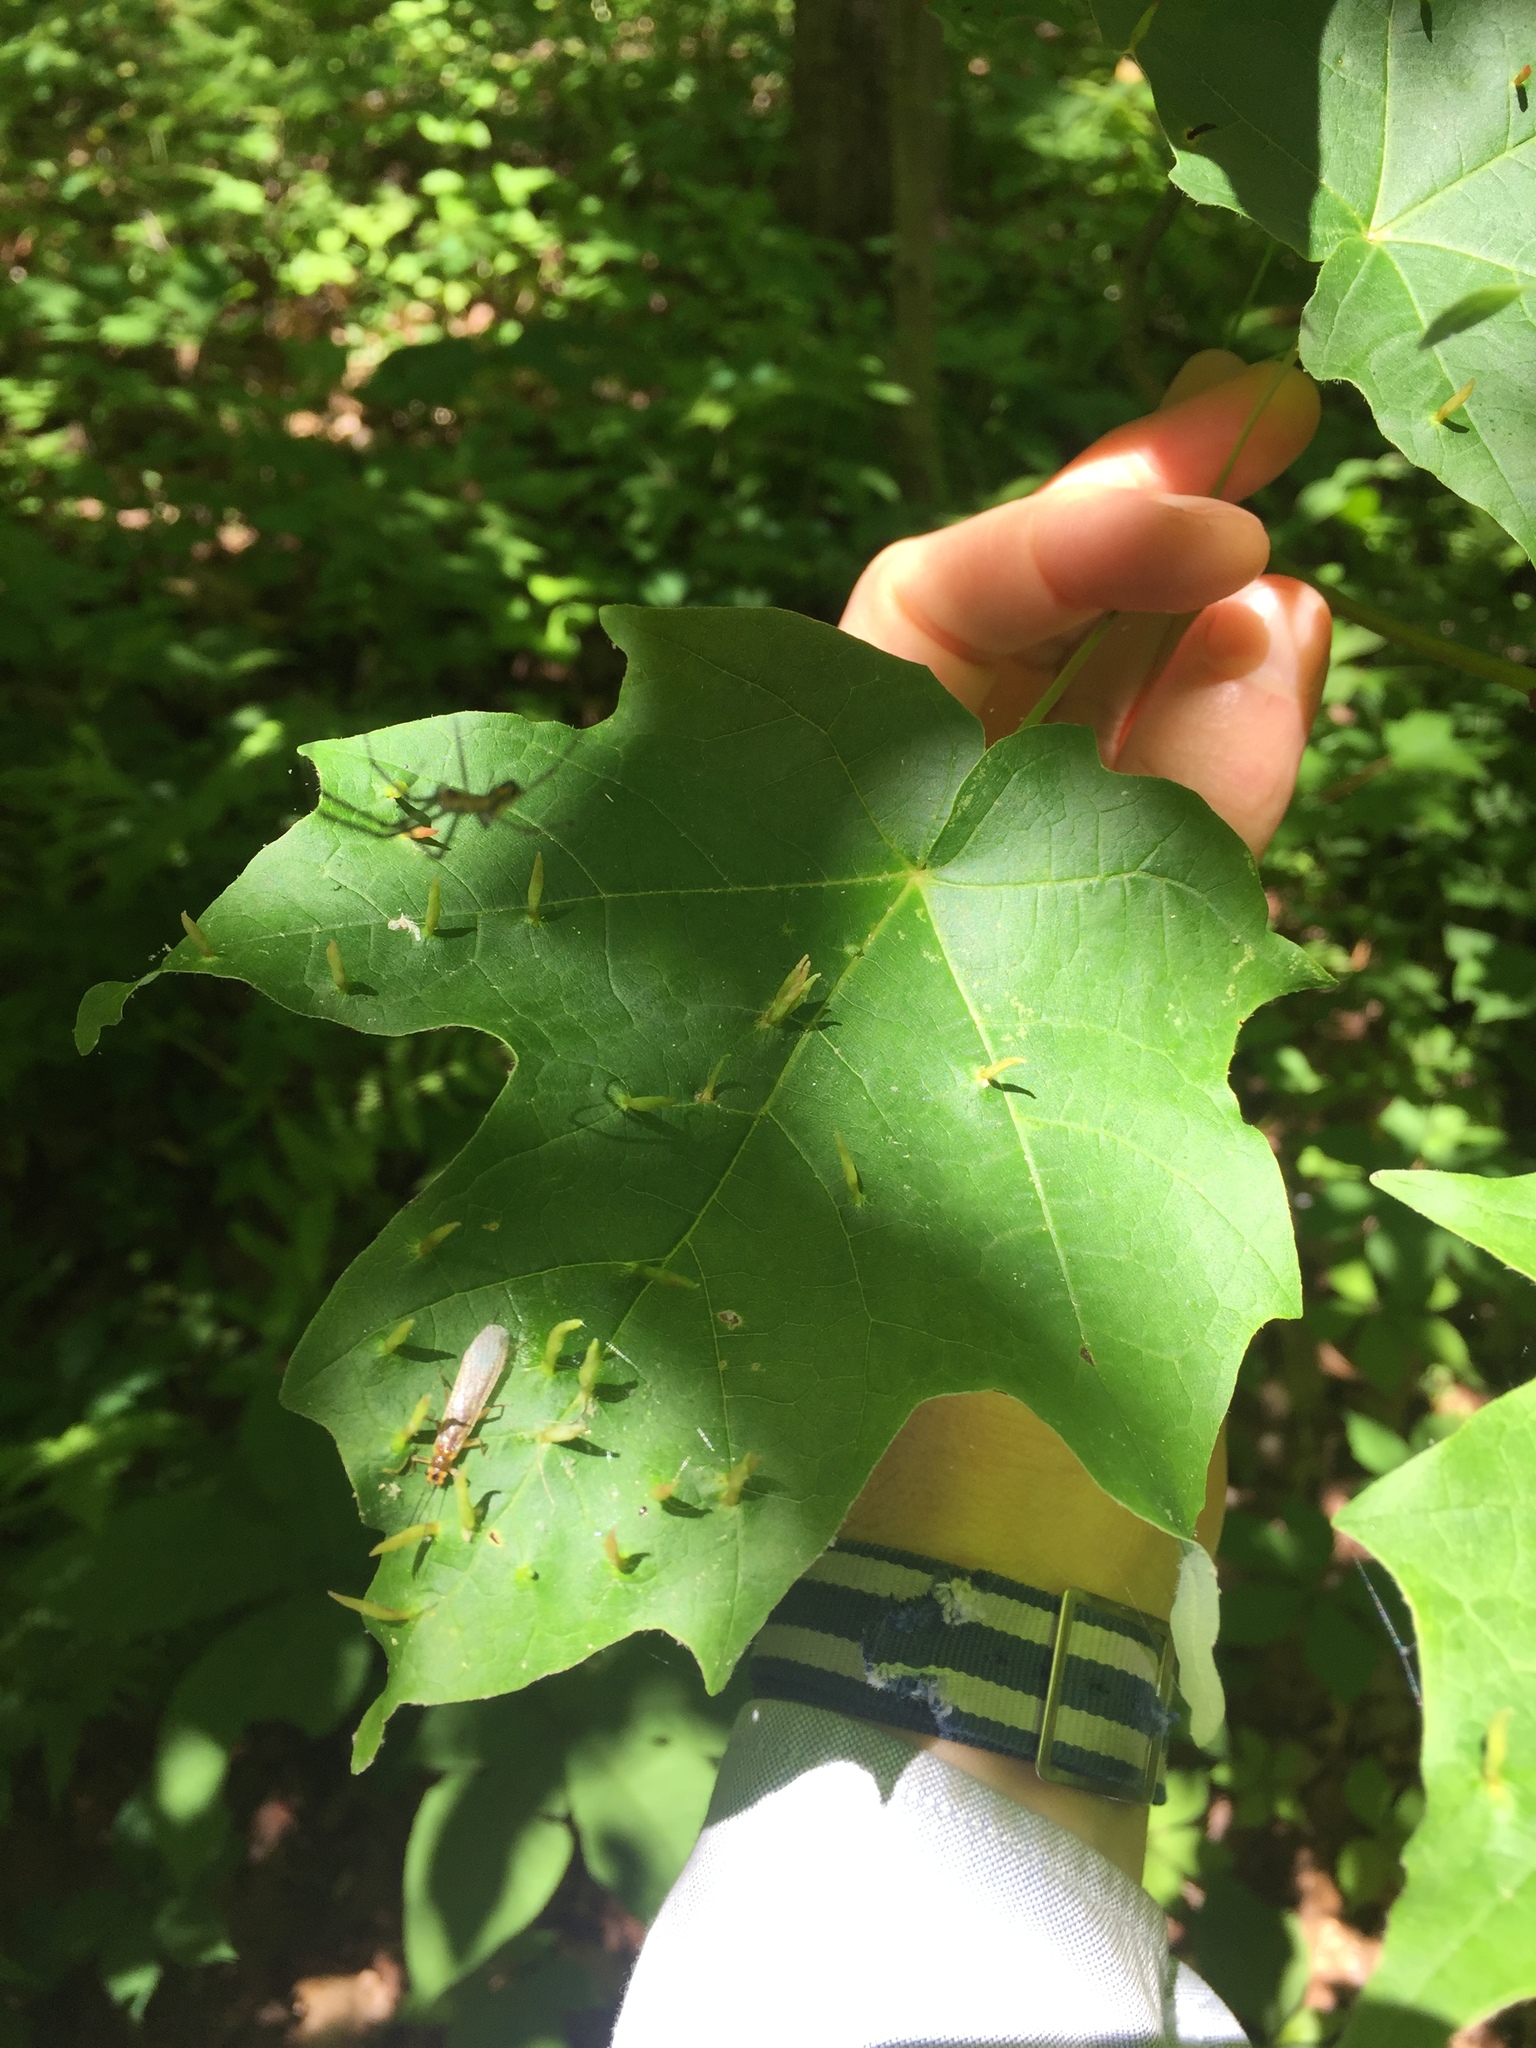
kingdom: Animalia
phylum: Arthropoda
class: Arachnida
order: Trombidiformes
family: Eriophyidae
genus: Vasates
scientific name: Vasates aceriscrumena
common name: Maple spindle gall mite
